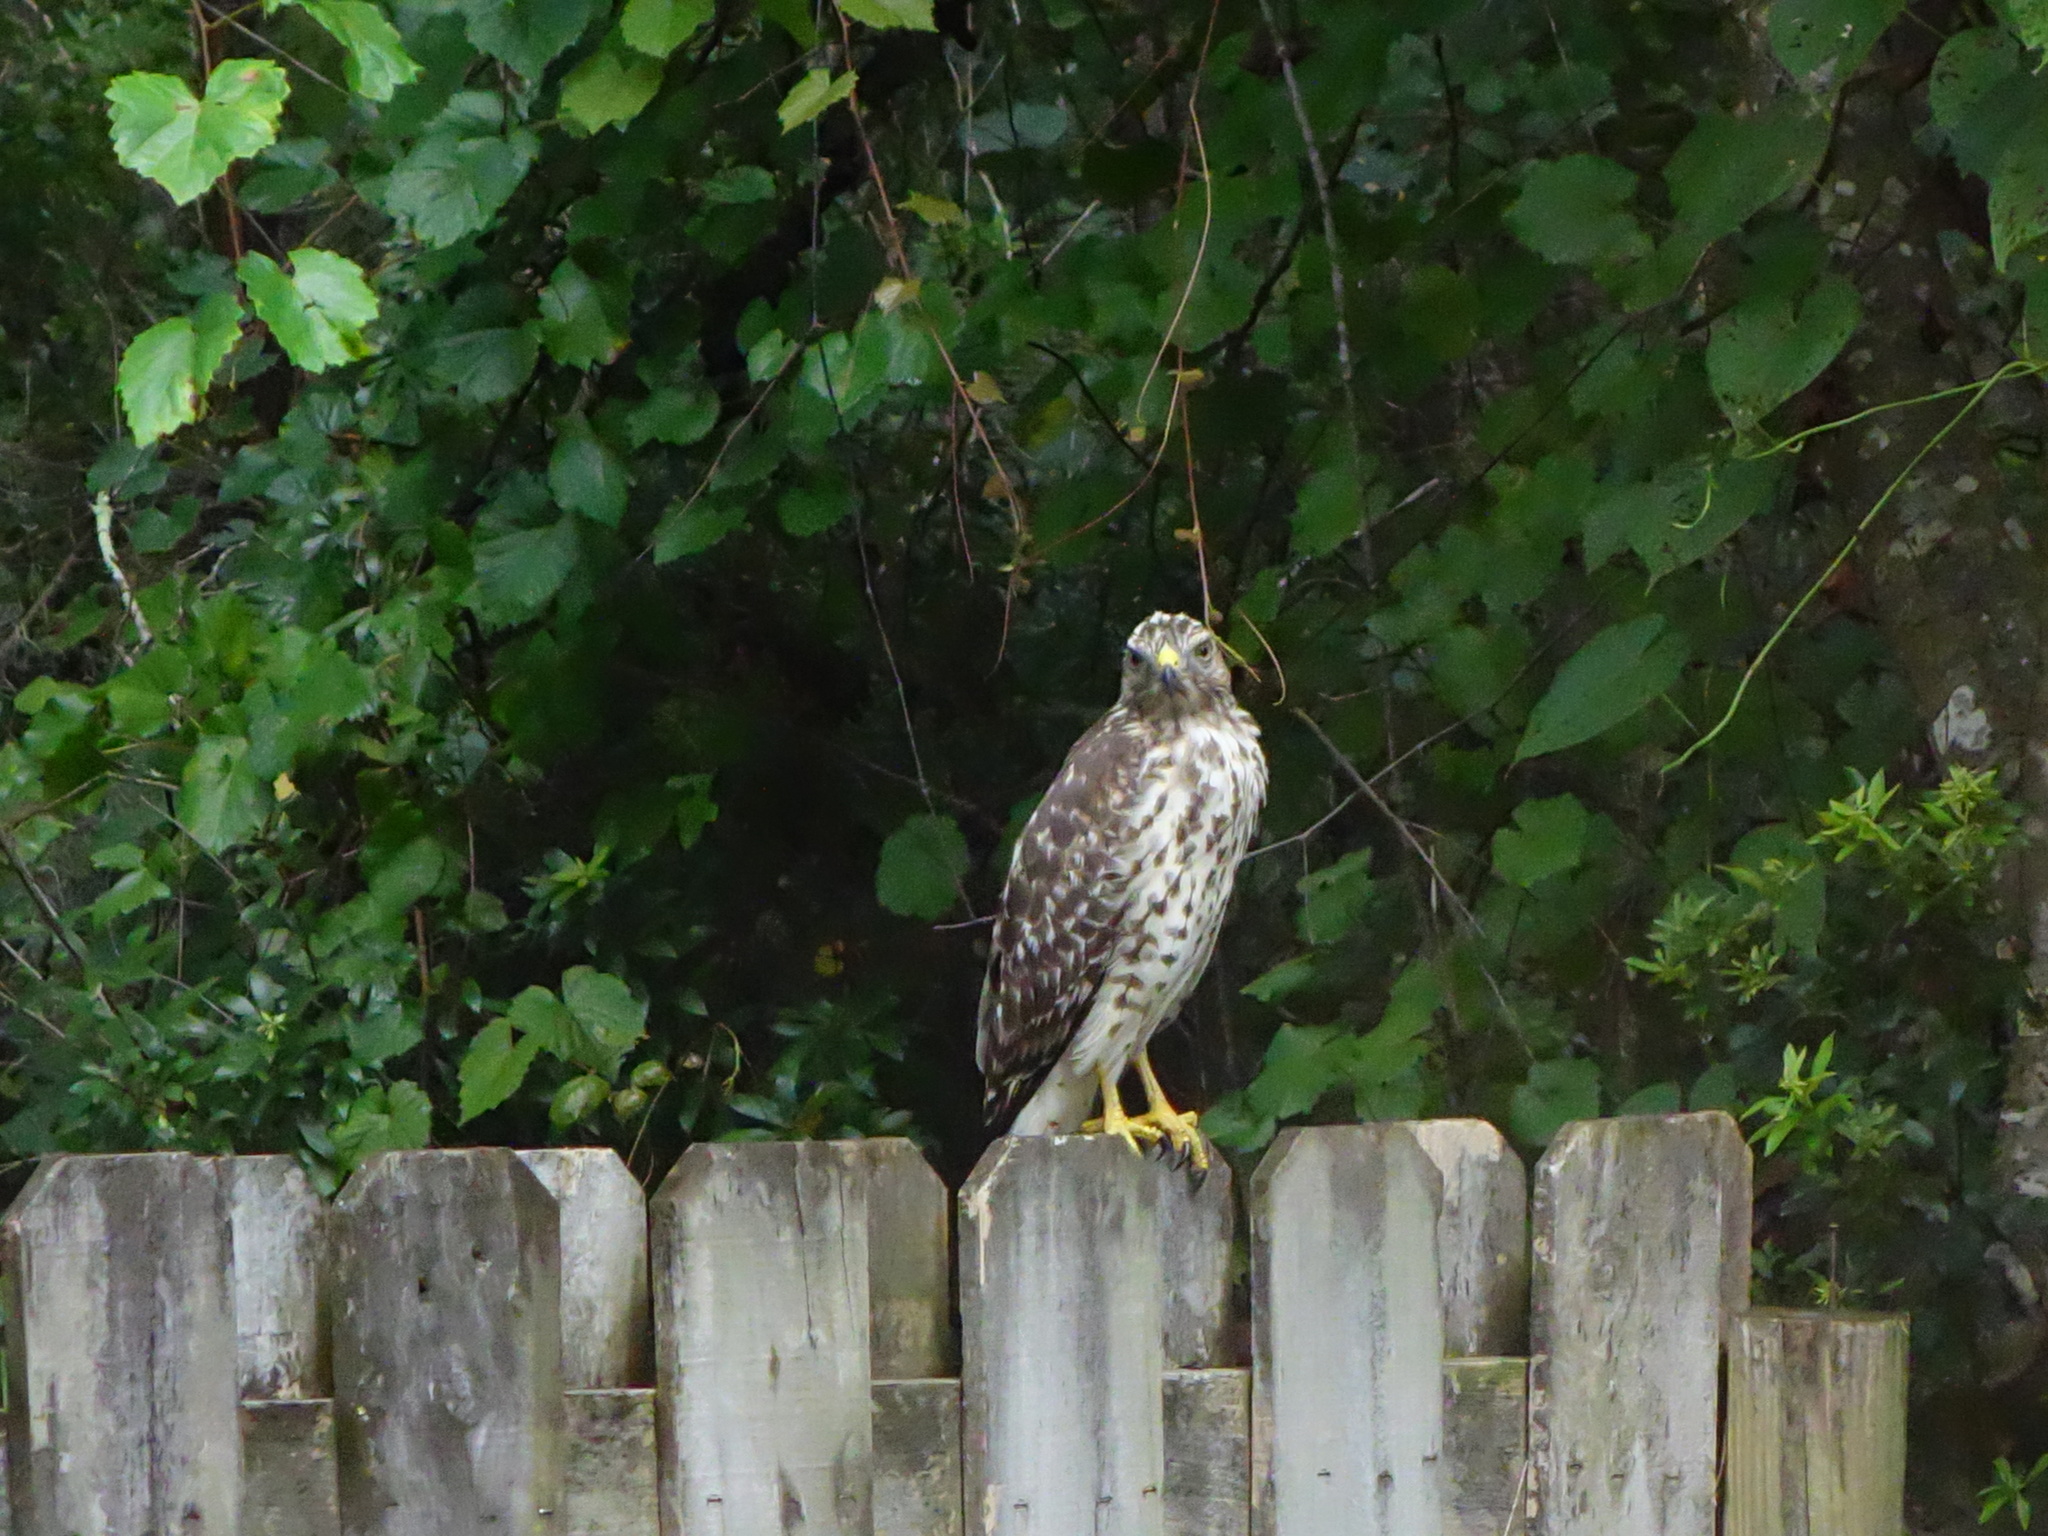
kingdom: Animalia
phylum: Chordata
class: Aves
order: Accipitriformes
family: Accipitridae
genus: Buteo
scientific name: Buteo lineatus
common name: Red-shouldered hawk
